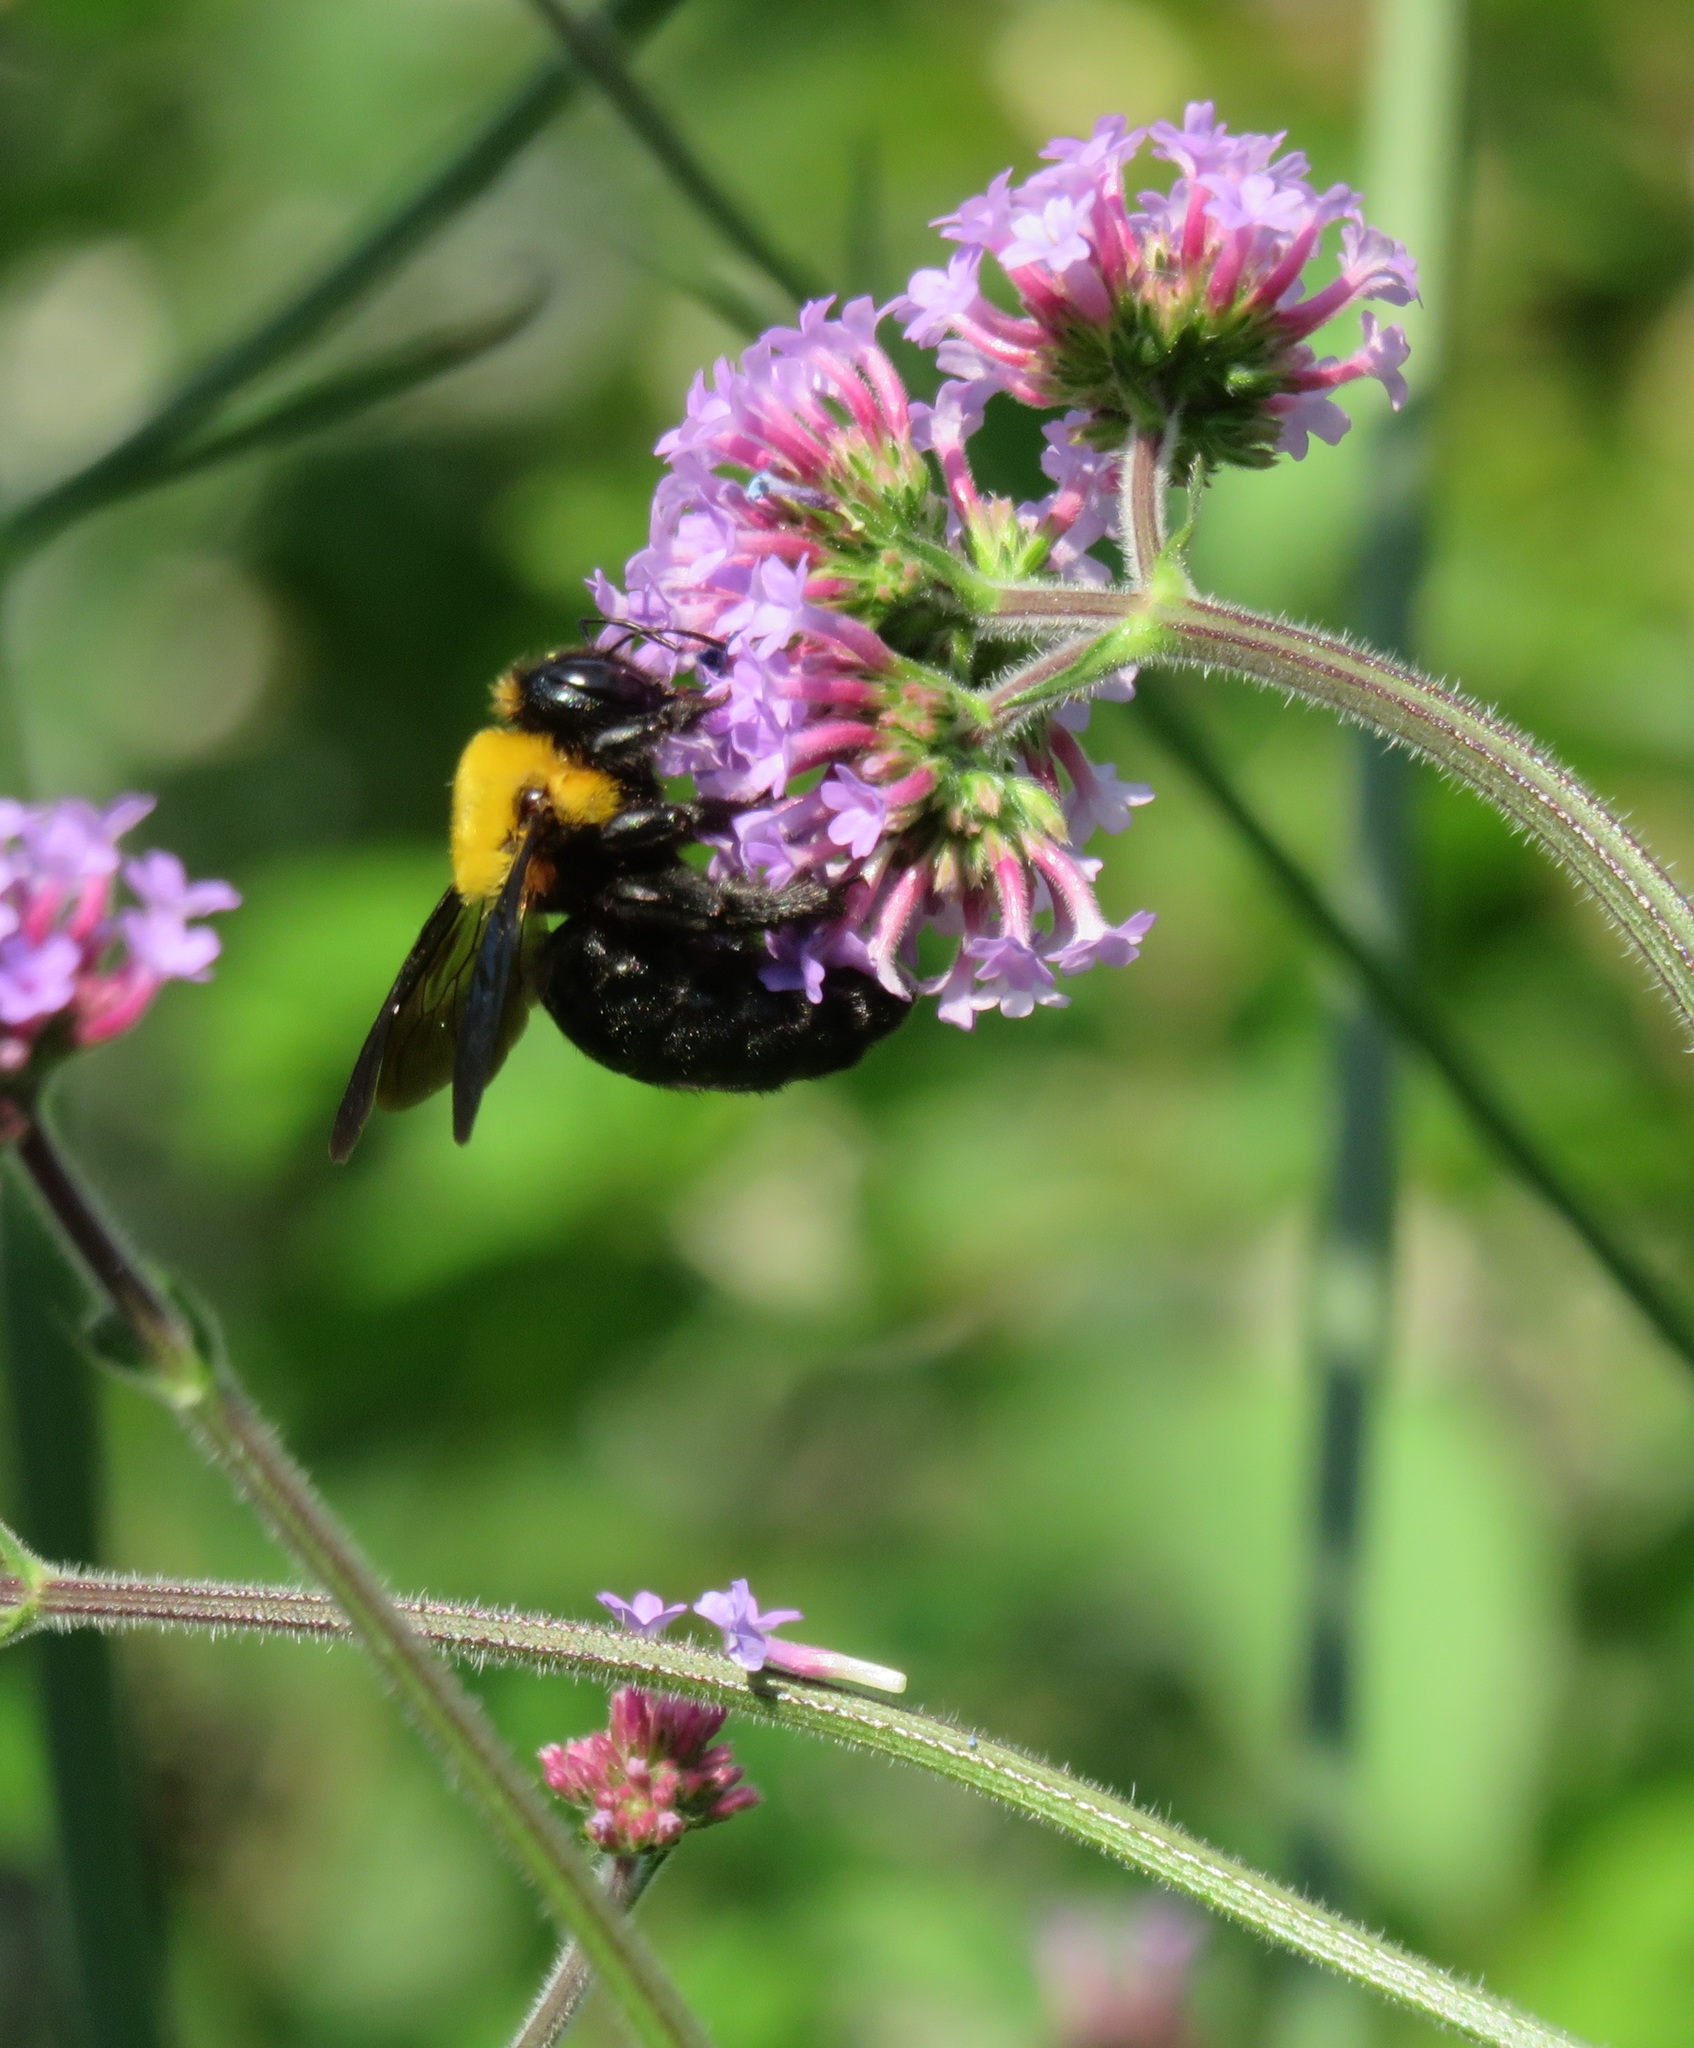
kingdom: Animalia
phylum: Arthropoda
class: Insecta
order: Hymenoptera
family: Apidae
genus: Xylocopa
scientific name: Xylocopa appendiculata
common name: Japanese carpenter bee
